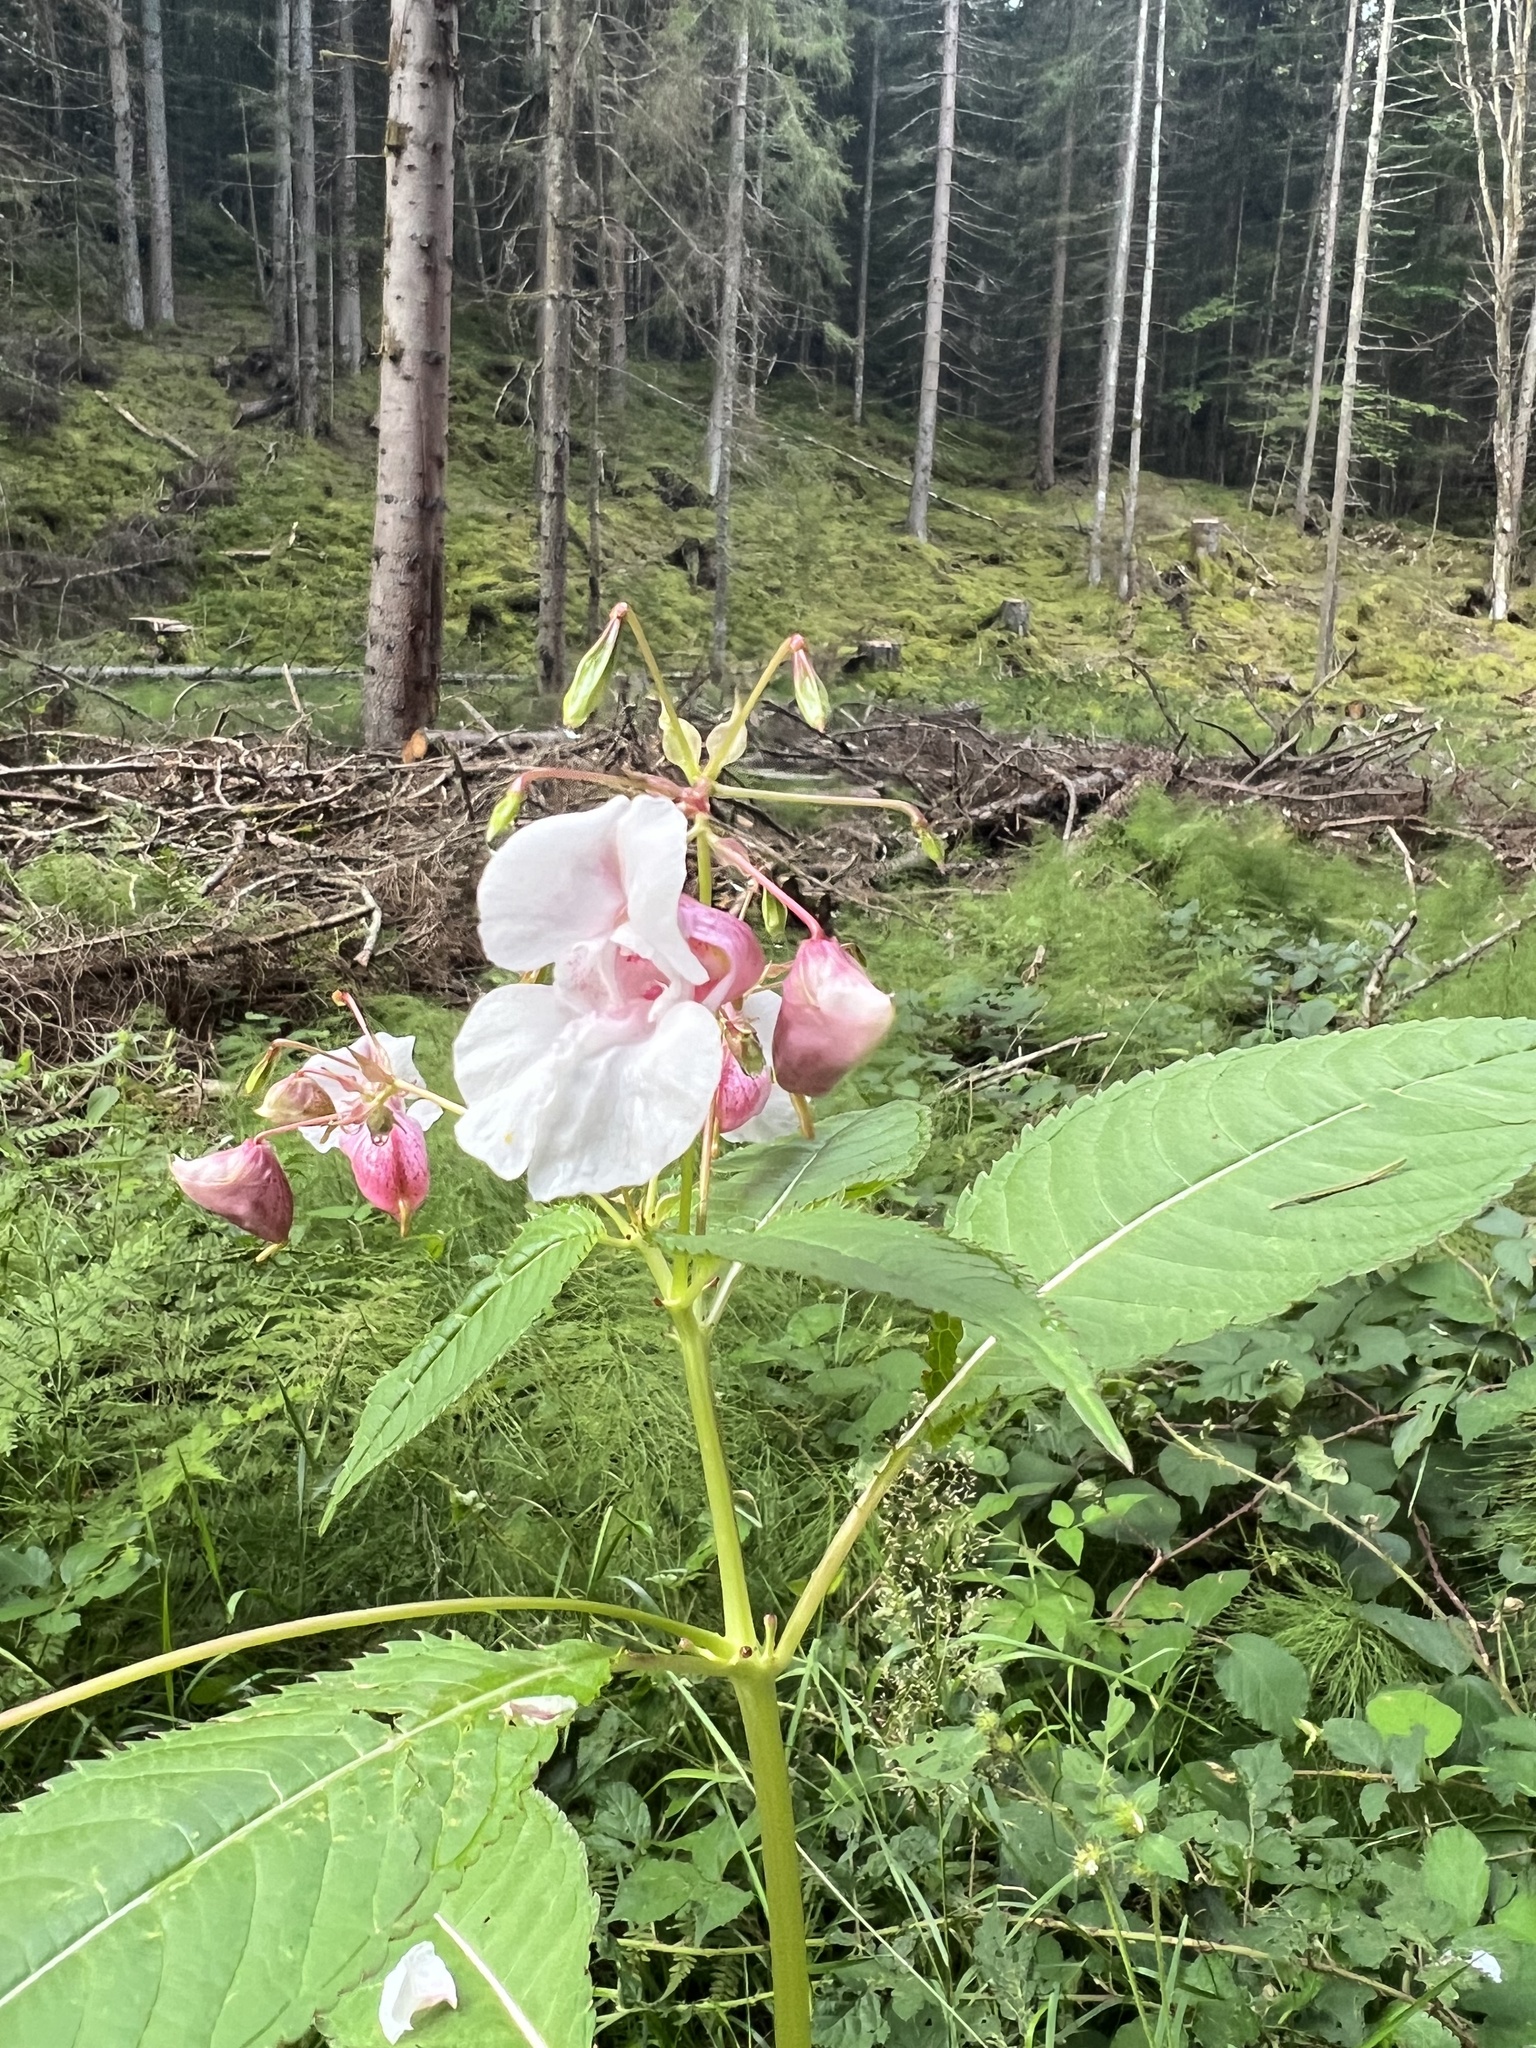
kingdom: Plantae
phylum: Tracheophyta
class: Magnoliopsida
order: Ericales
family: Balsaminaceae
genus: Impatiens
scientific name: Impatiens glandulifera
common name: Himalayan balsam
